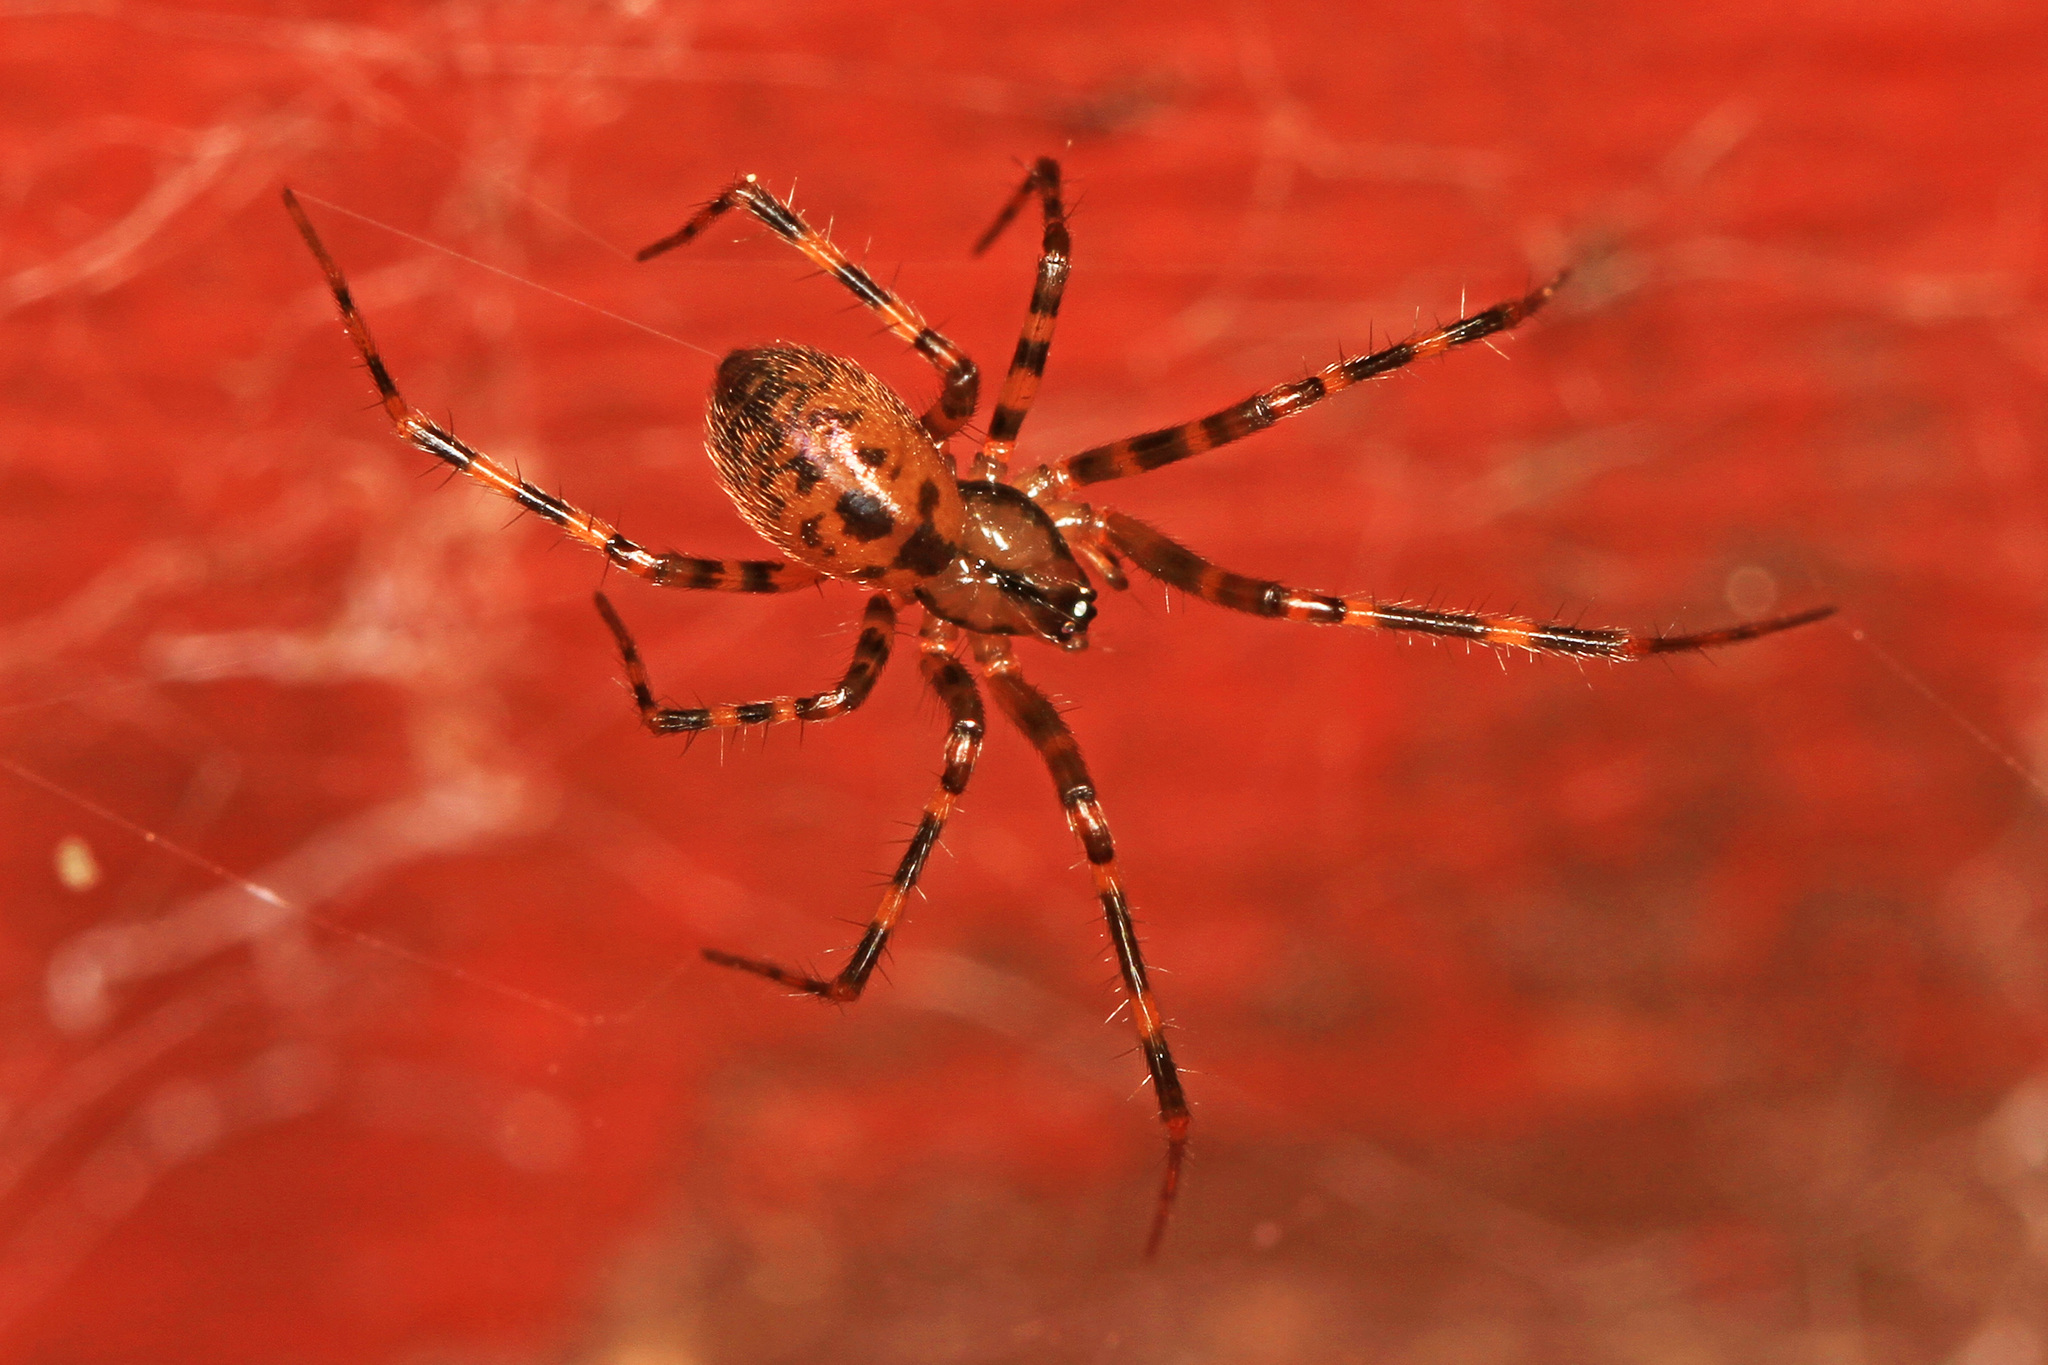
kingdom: Animalia
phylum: Arthropoda
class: Arachnida
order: Araneae
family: Pimoidae
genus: Pimoa
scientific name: Pimoa haden
